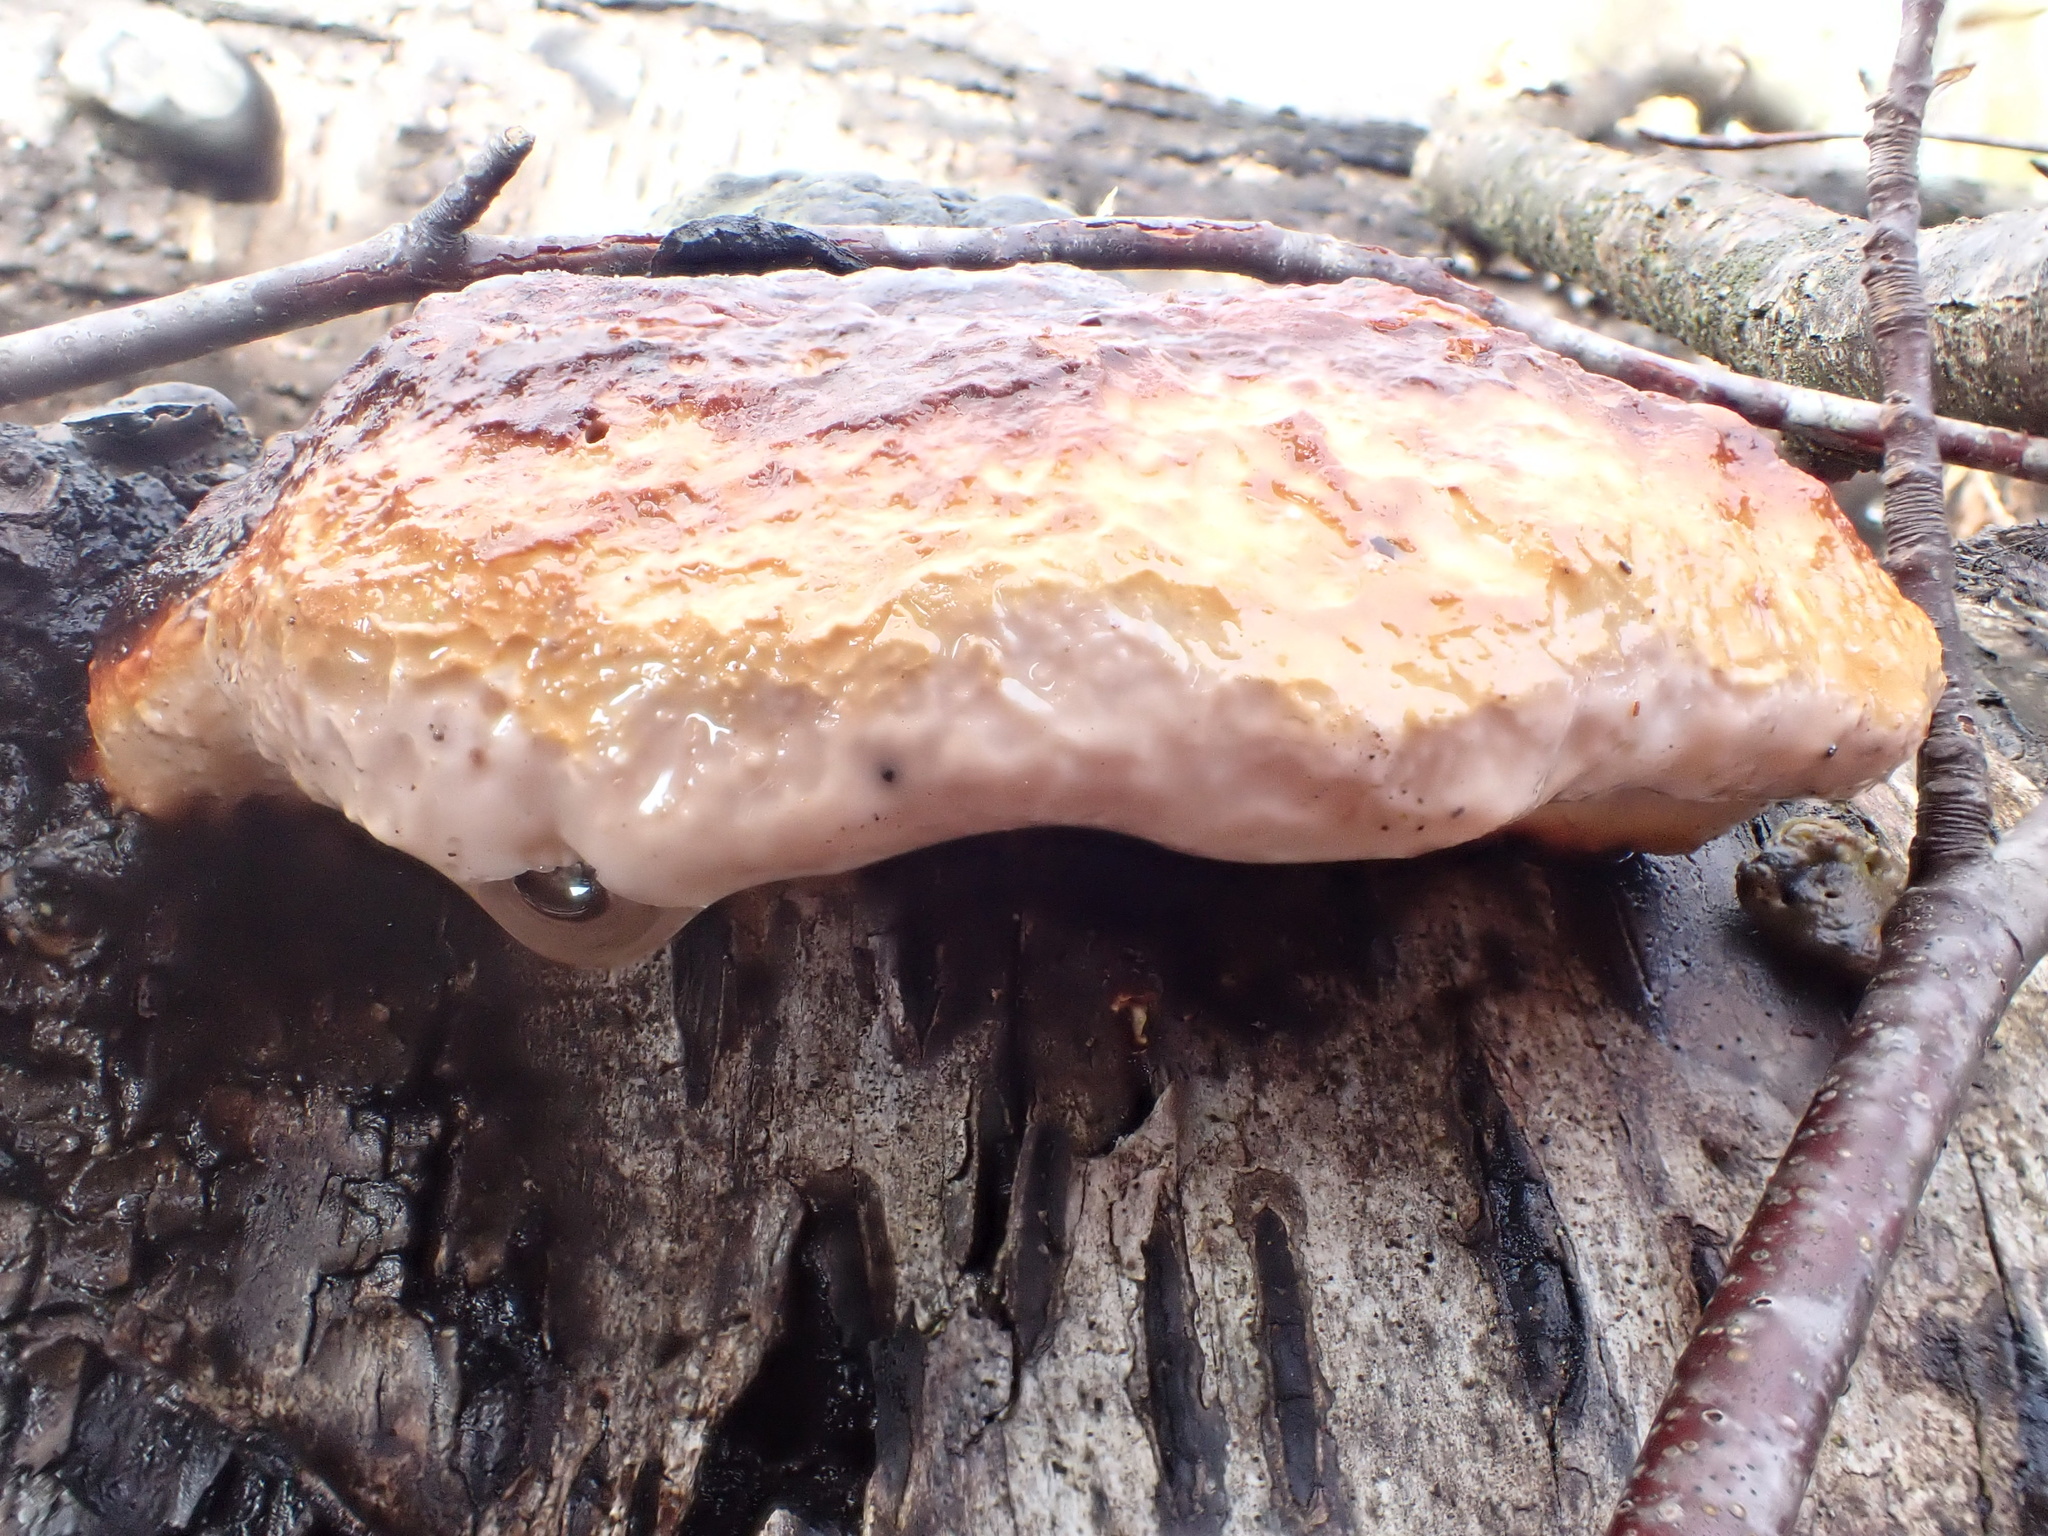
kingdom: Fungi
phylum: Basidiomycota
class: Agaricomycetes
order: Polyporales
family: Fomitopsidaceae
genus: Fomitopsis
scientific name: Fomitopsis pinicola
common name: Red-belted bracket
